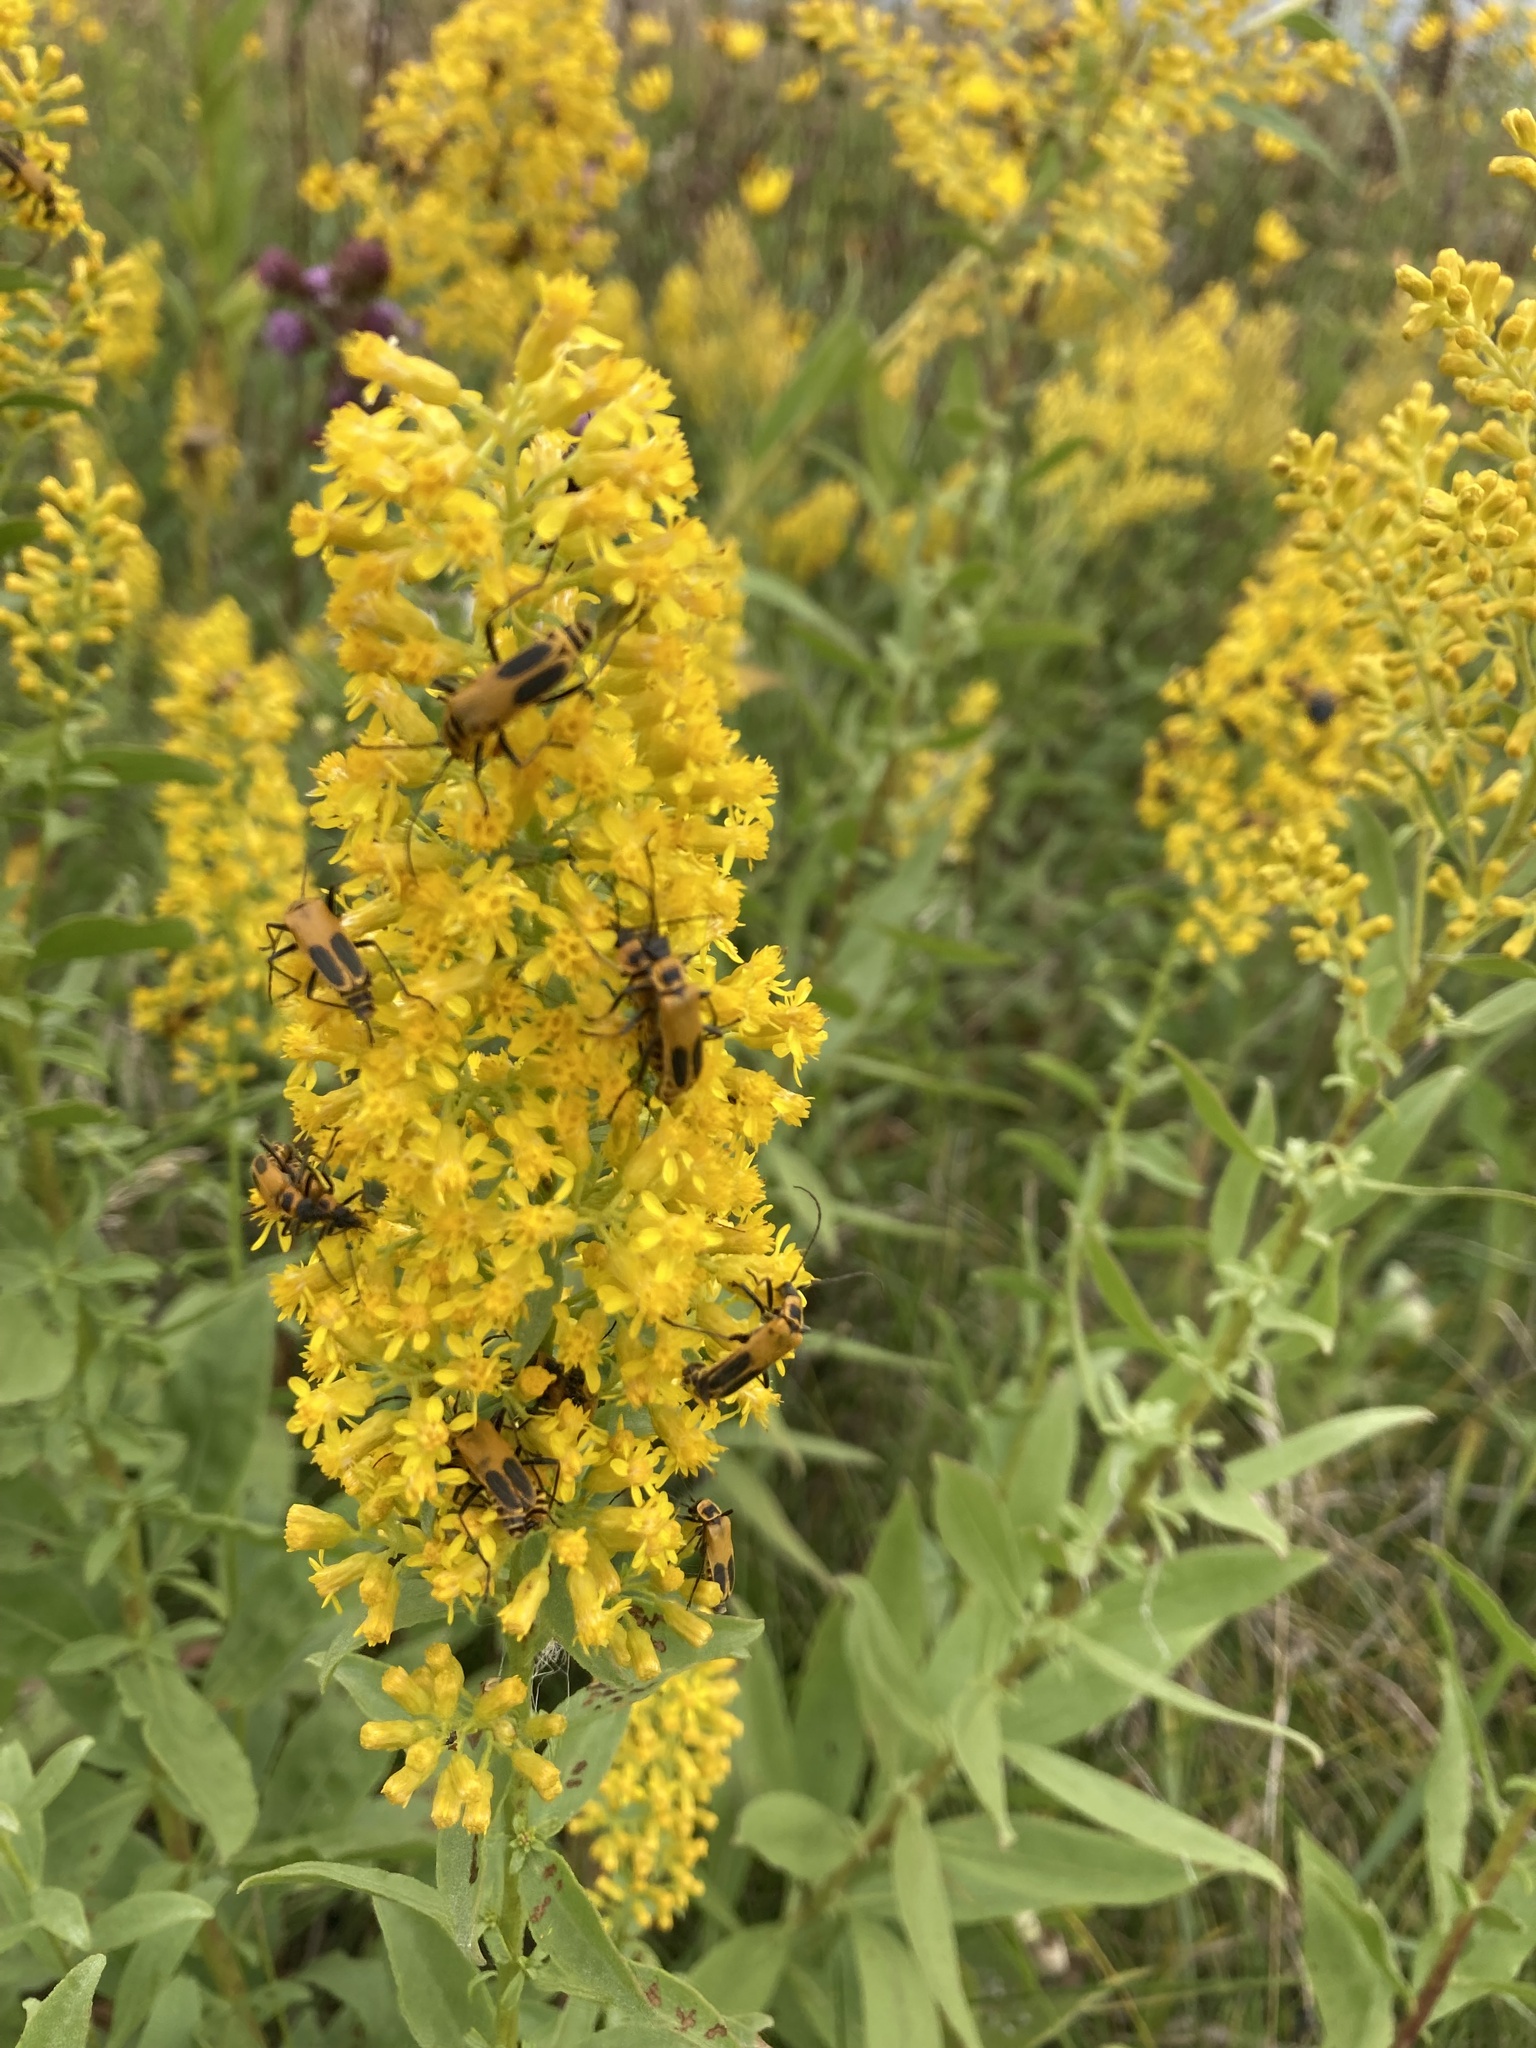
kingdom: Animalia
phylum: Arthropoda
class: Insecta
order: Coleoptera
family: Cantharidae
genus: Chauliognathus
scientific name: Chauliognathus pensylvanicus
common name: Goldenrod soldier beetle
